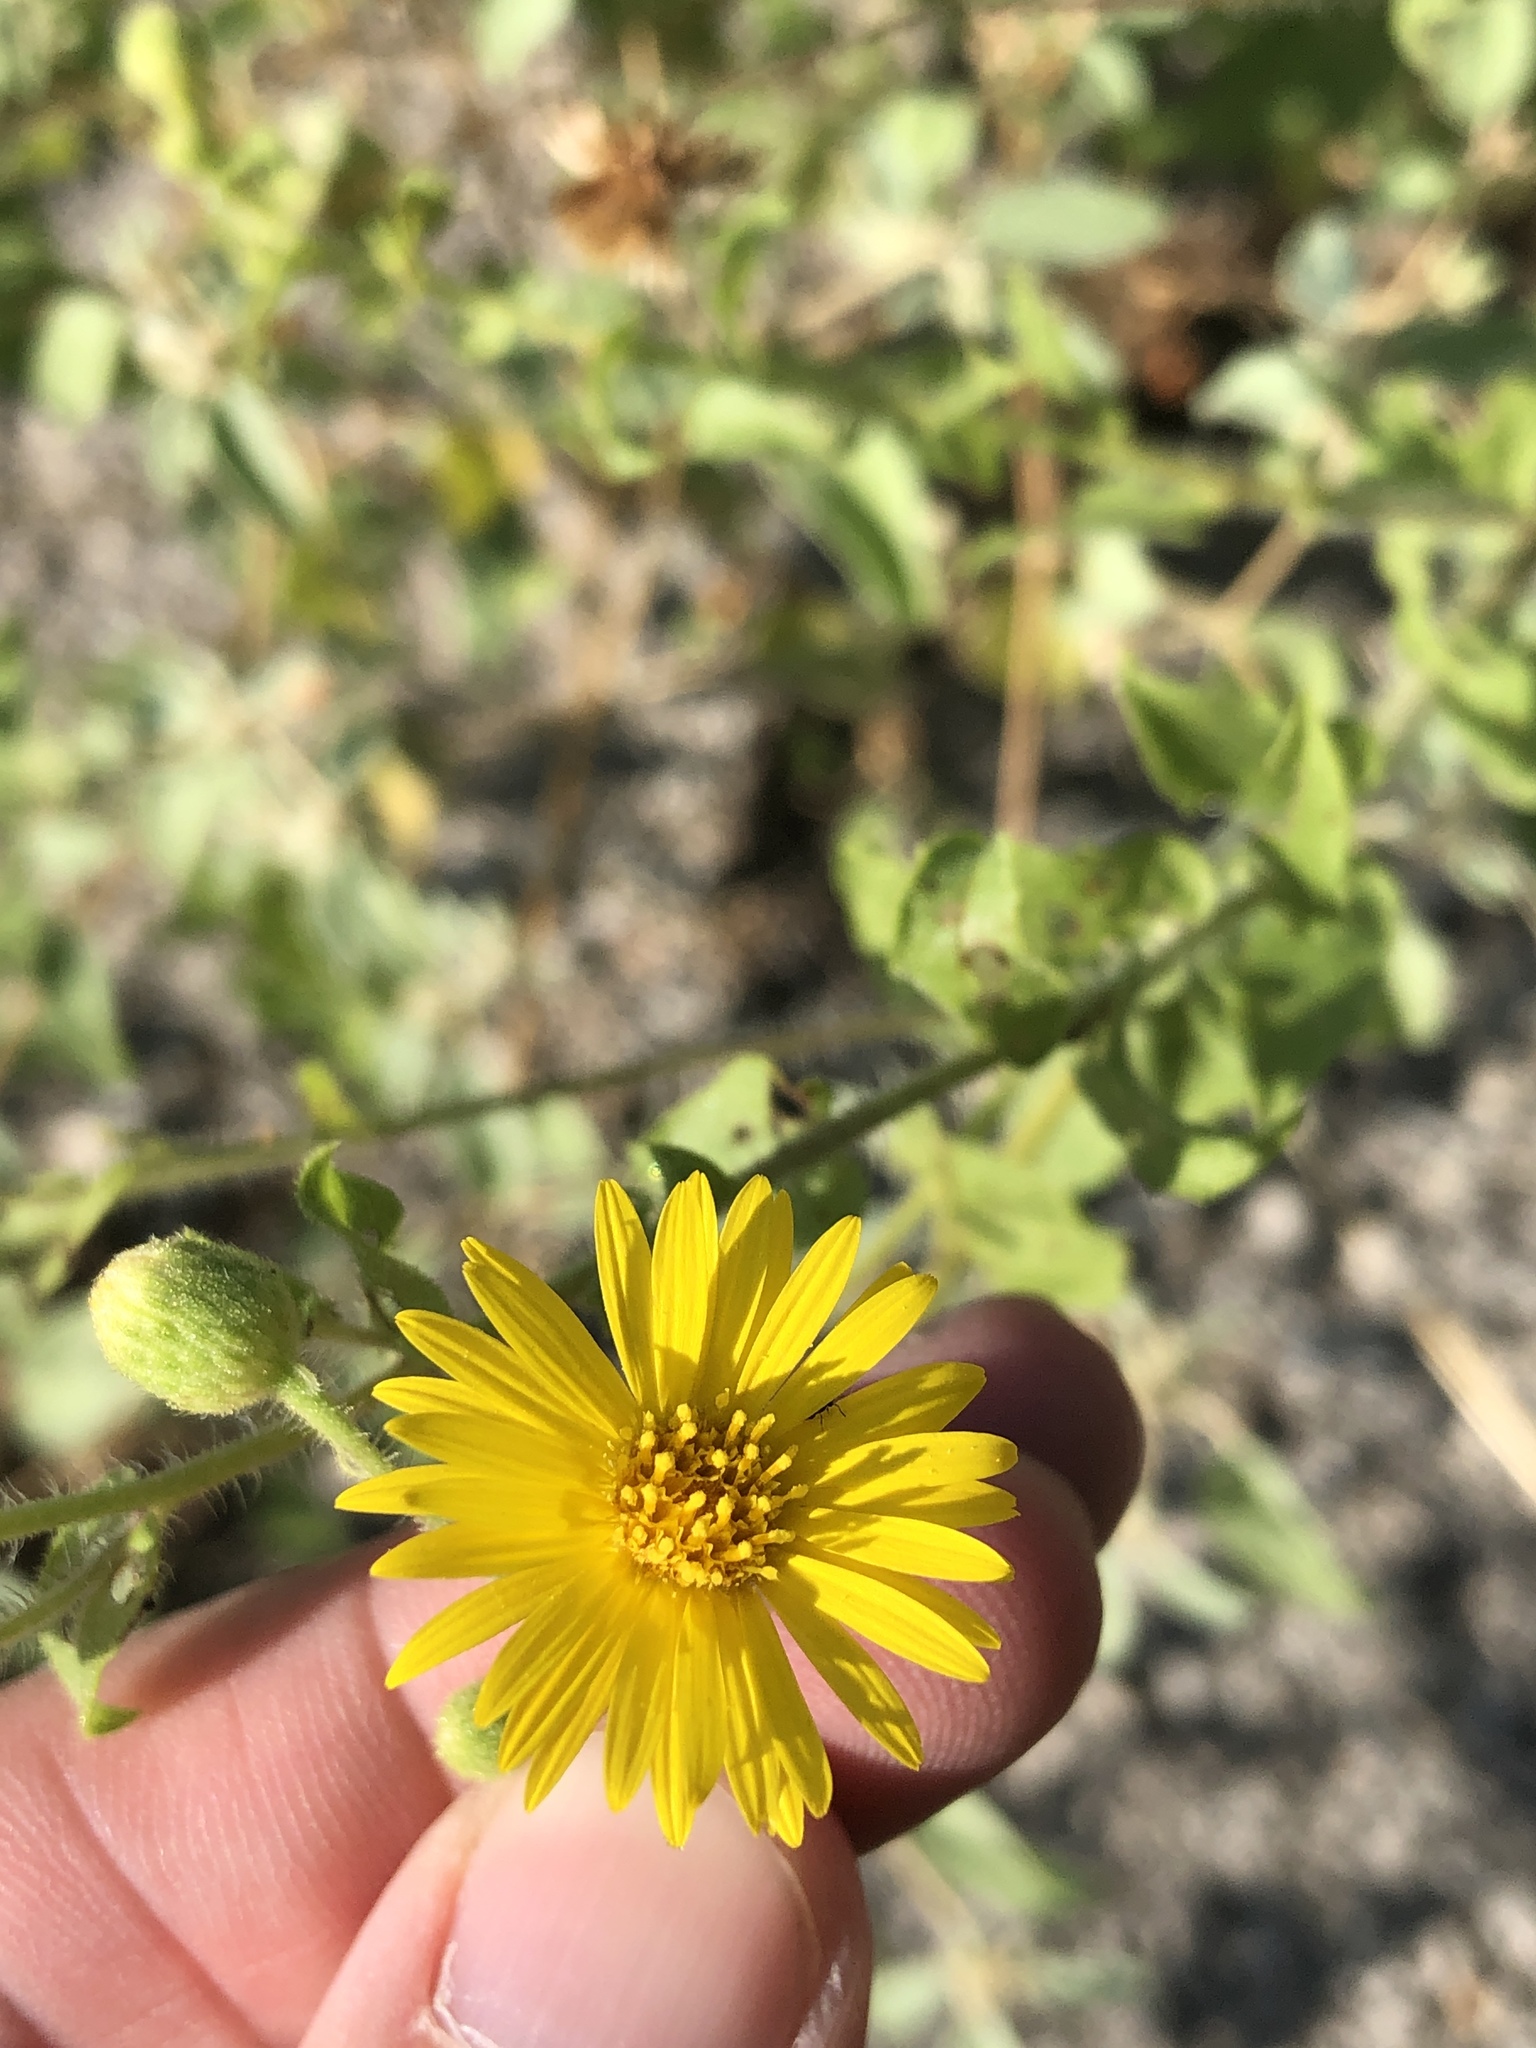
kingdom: Plantae
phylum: Tracheophyta
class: Magnoliopsida
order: Asterales
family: Asteraceae
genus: Heterotheca
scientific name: Heterotheca subaxillaris
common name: Camphorweed
